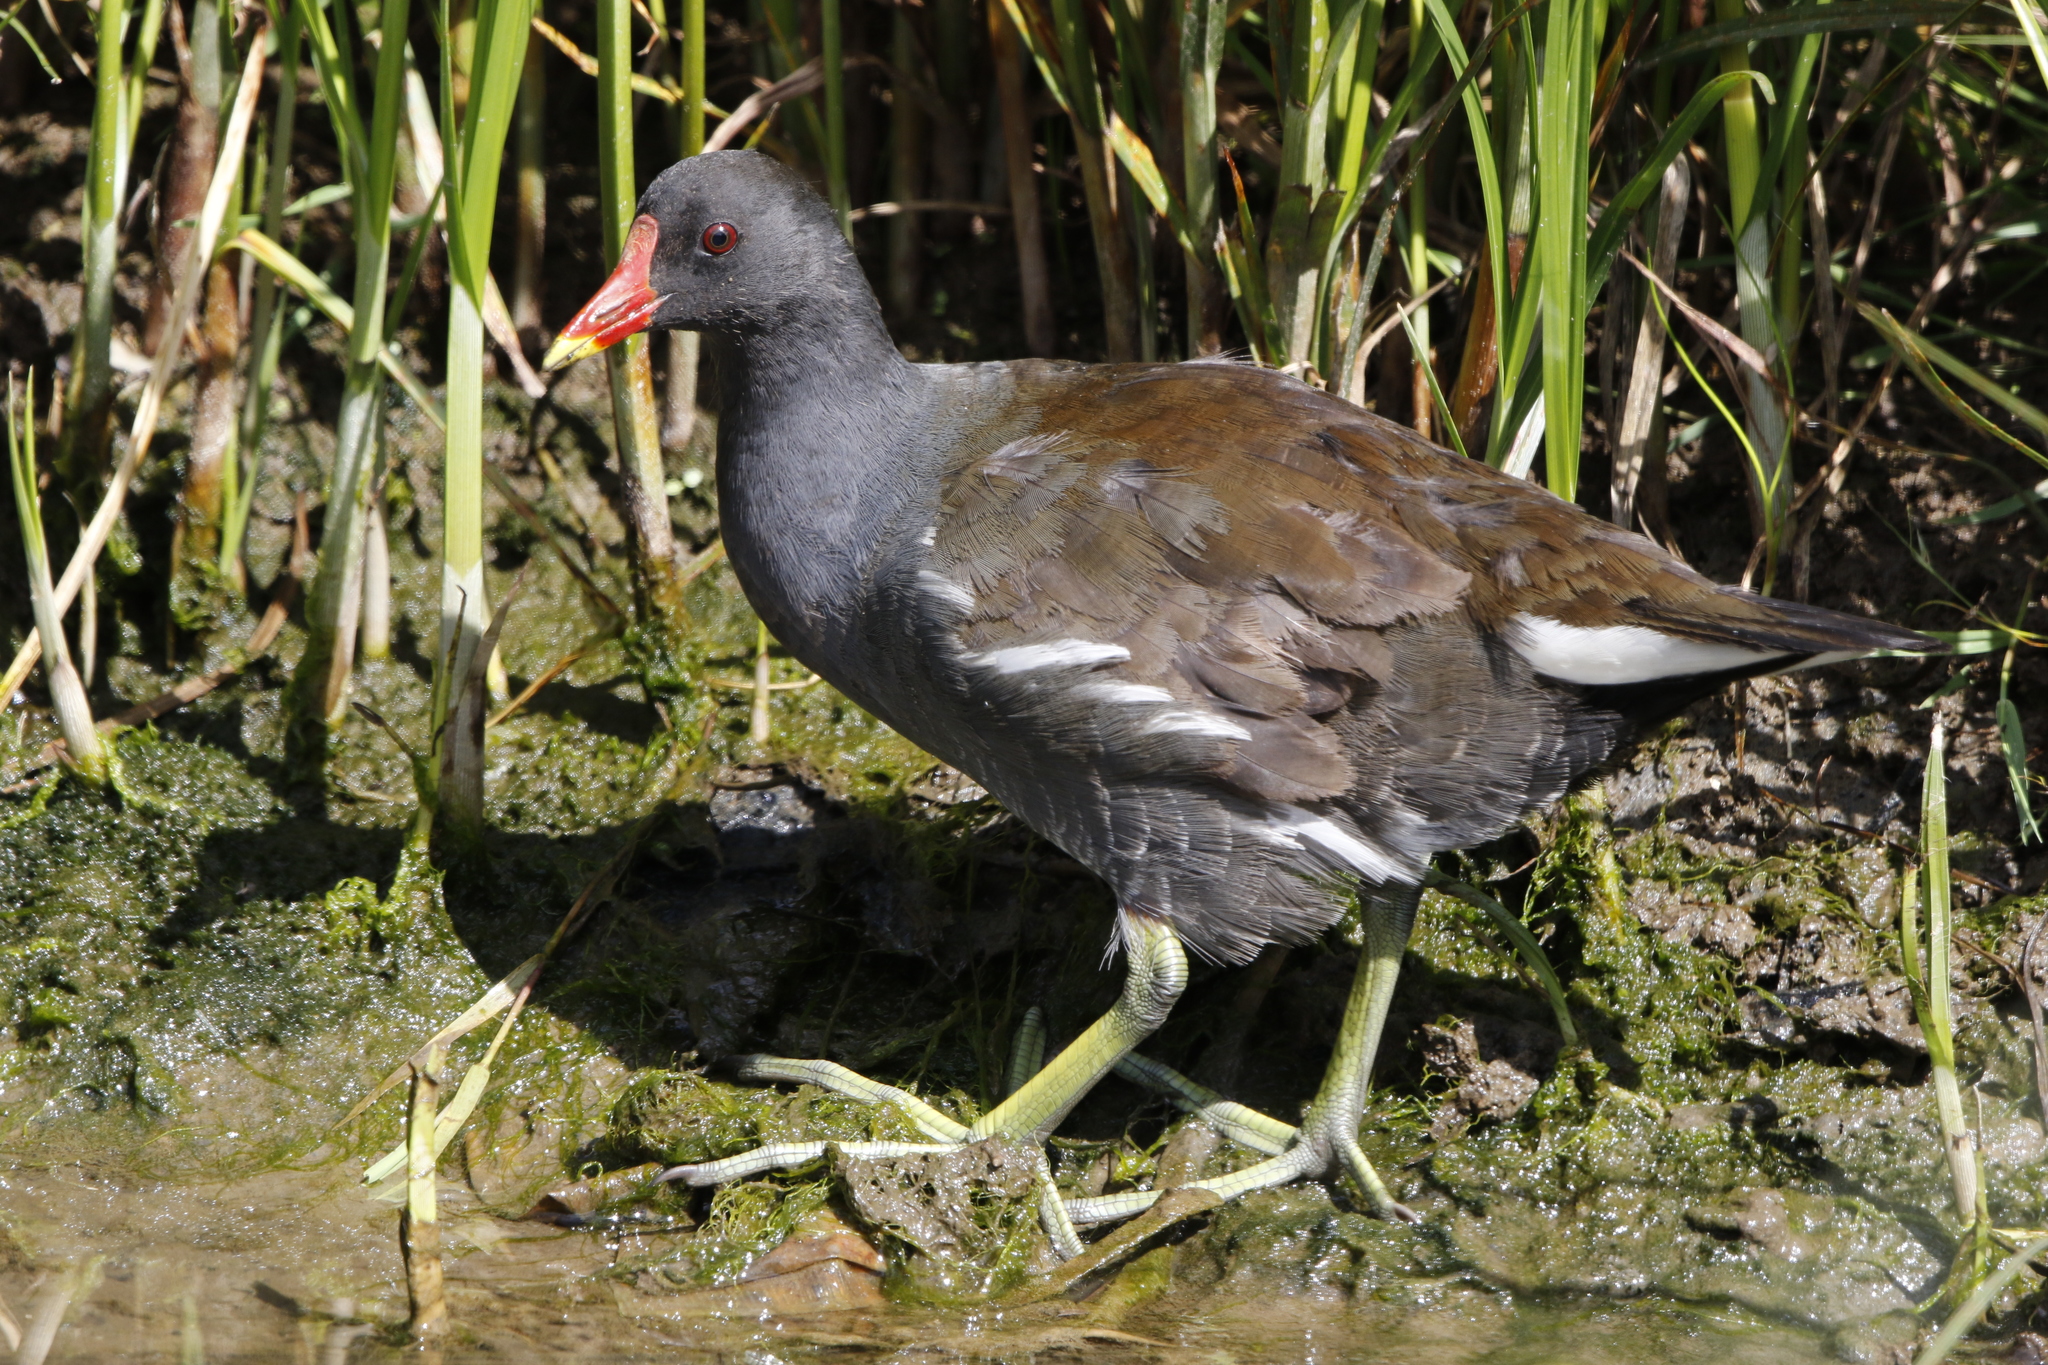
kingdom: Animalia
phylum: Chordata
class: Aves
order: Gruiformes
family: Rallidae
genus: Gallinula
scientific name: Gallinula chloropus
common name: Common moorhen
